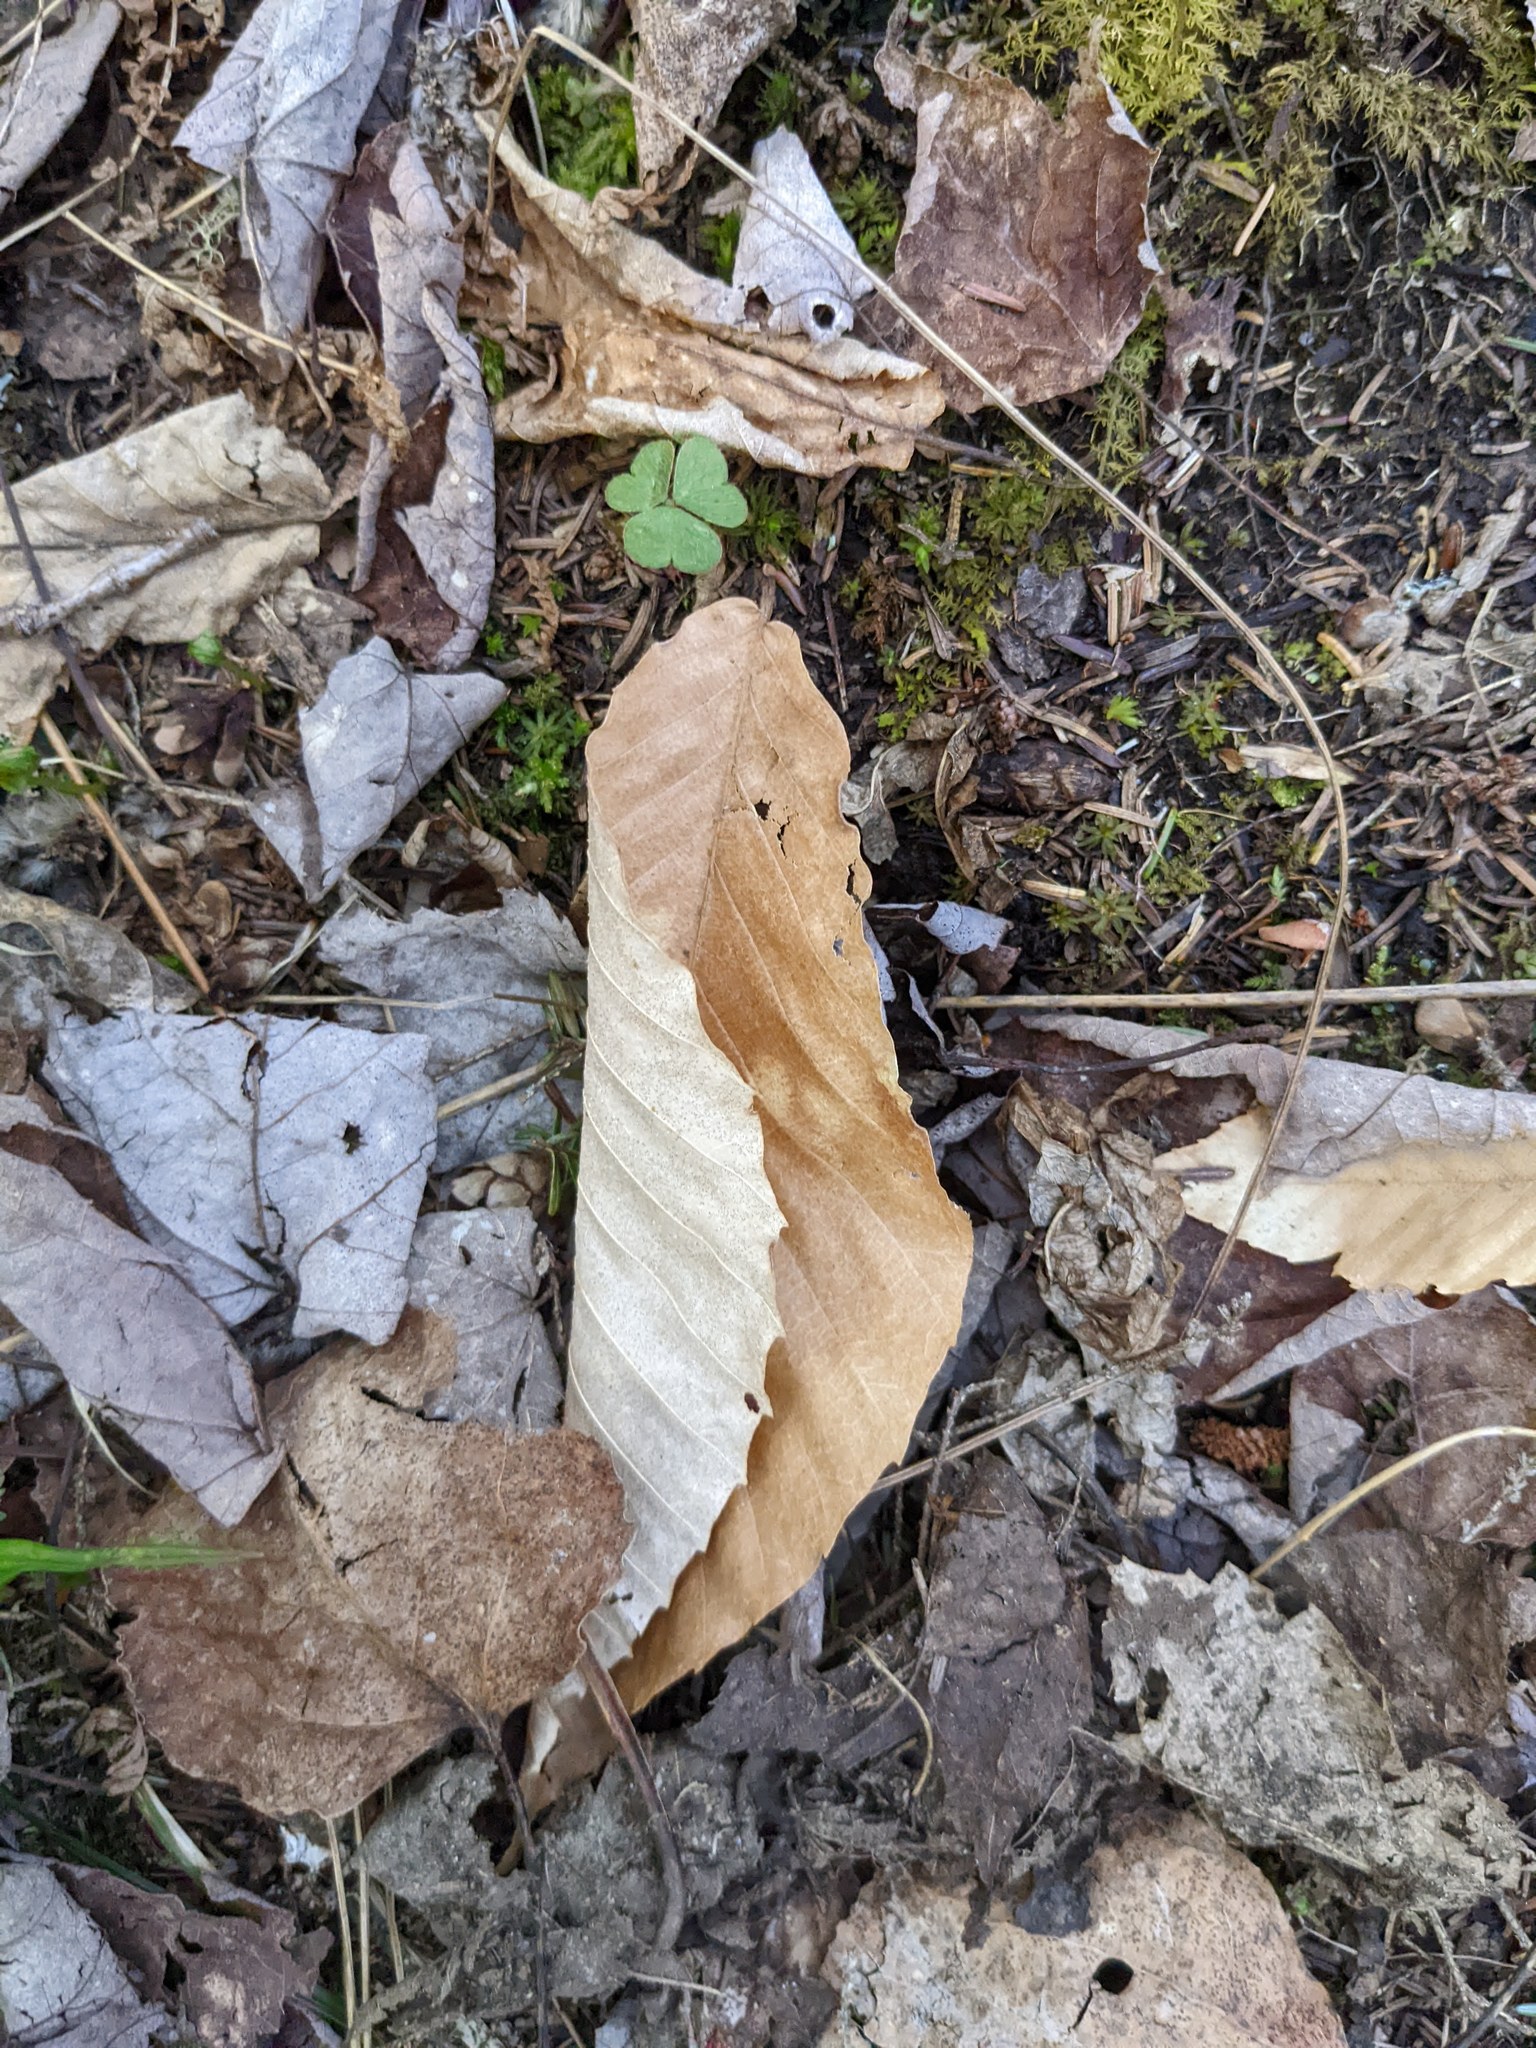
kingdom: Plantae
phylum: Tracheophyta
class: Magnoliopsida
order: Fagales
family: Fagaceae
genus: Fagus
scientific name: Fagus grandifolia
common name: American beech
